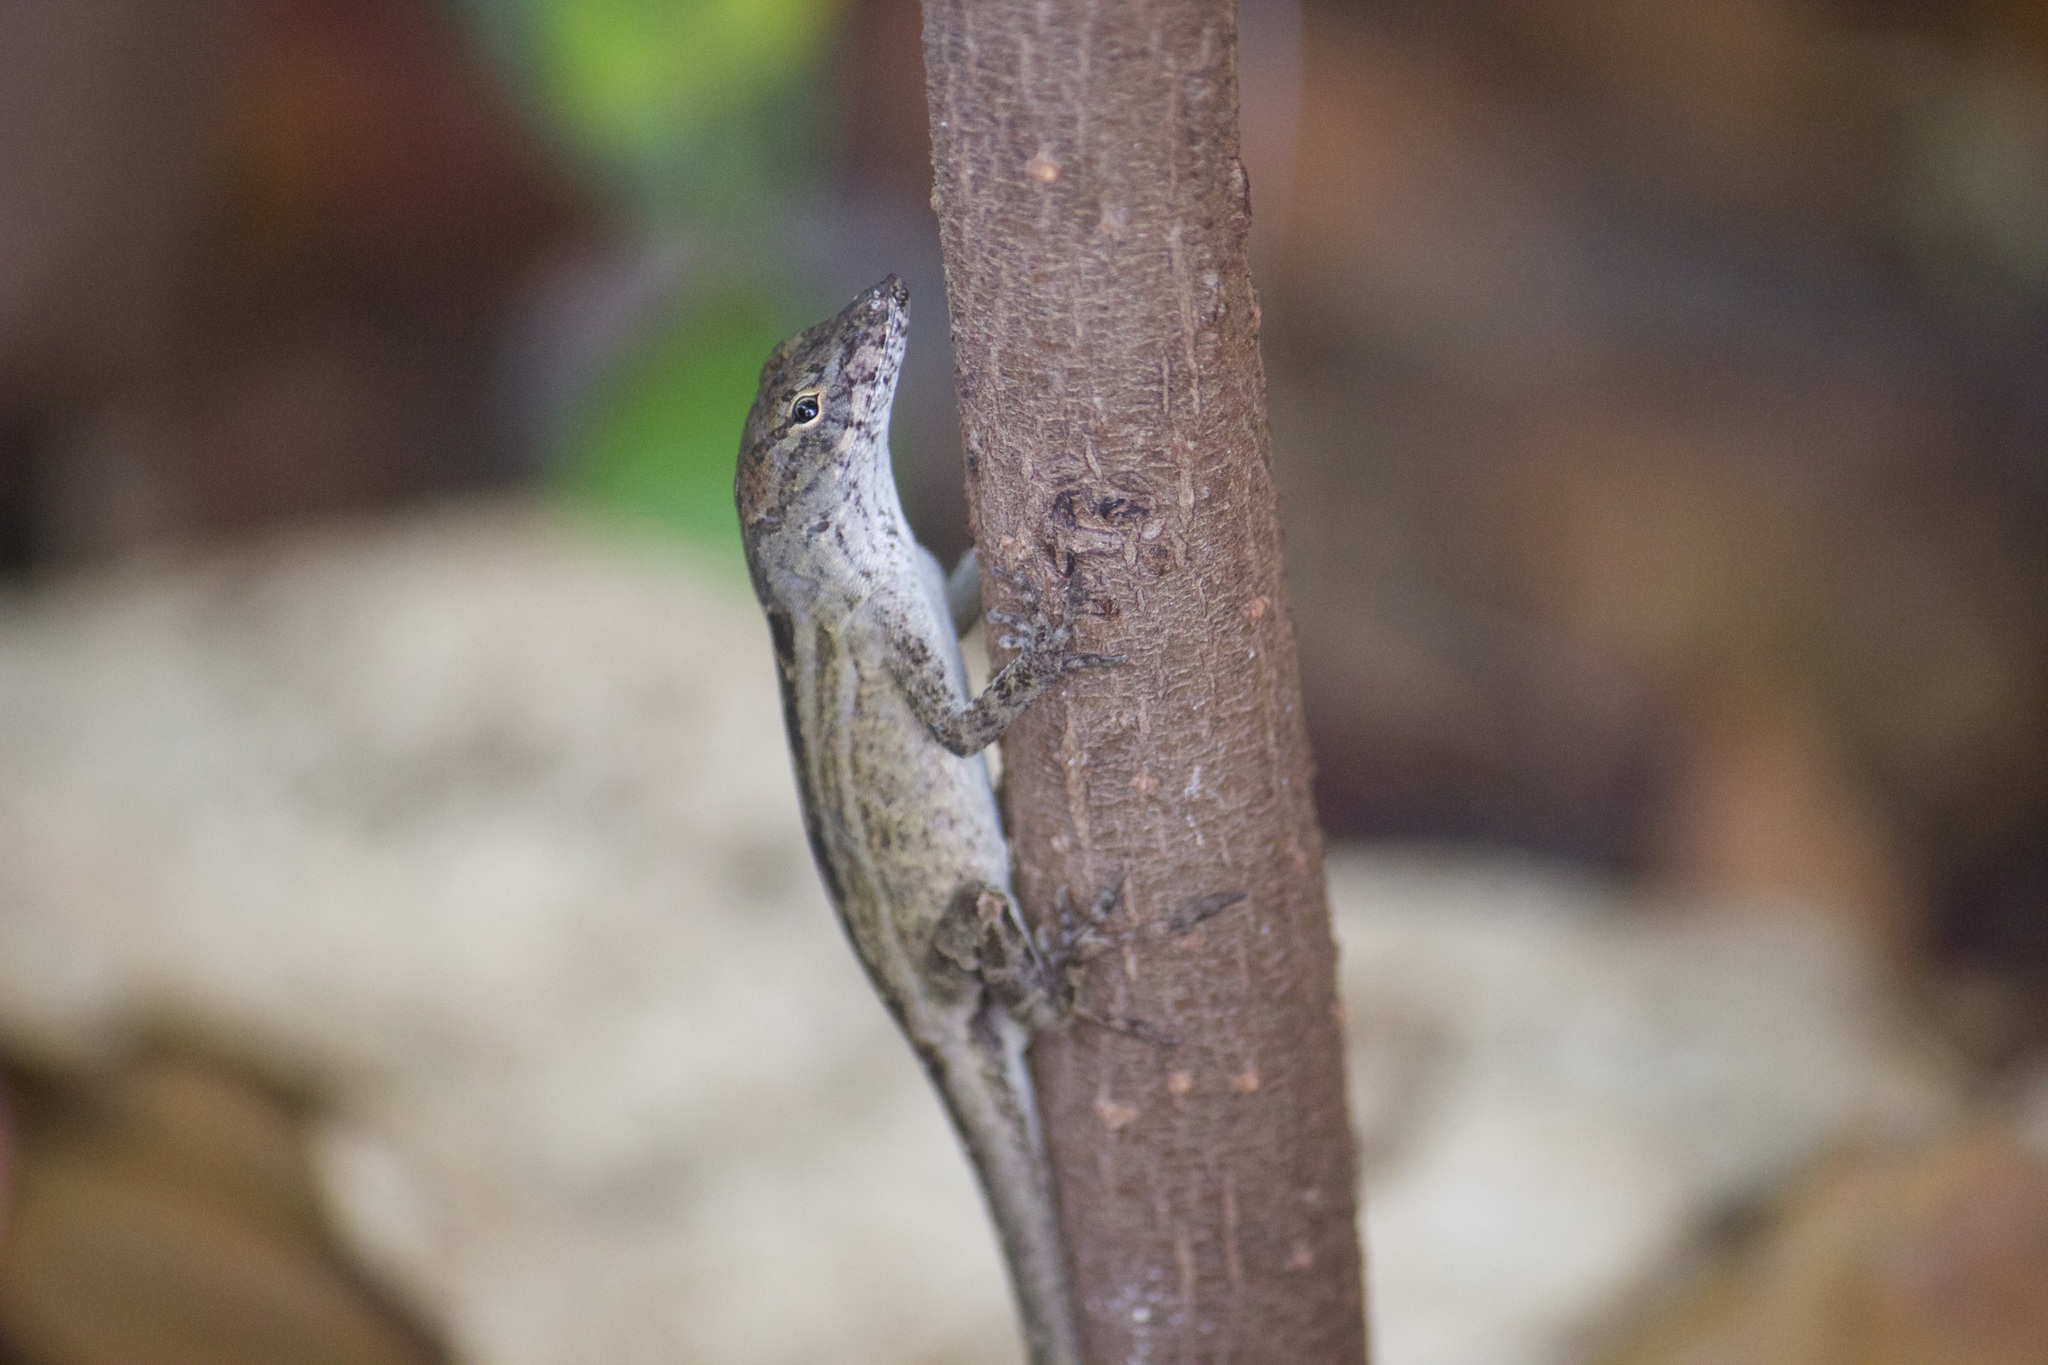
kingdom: Animalia
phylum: Chordata
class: Squamata
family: Dactyloidae
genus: Anolis
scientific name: Anolis sagrei
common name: Brown anole
